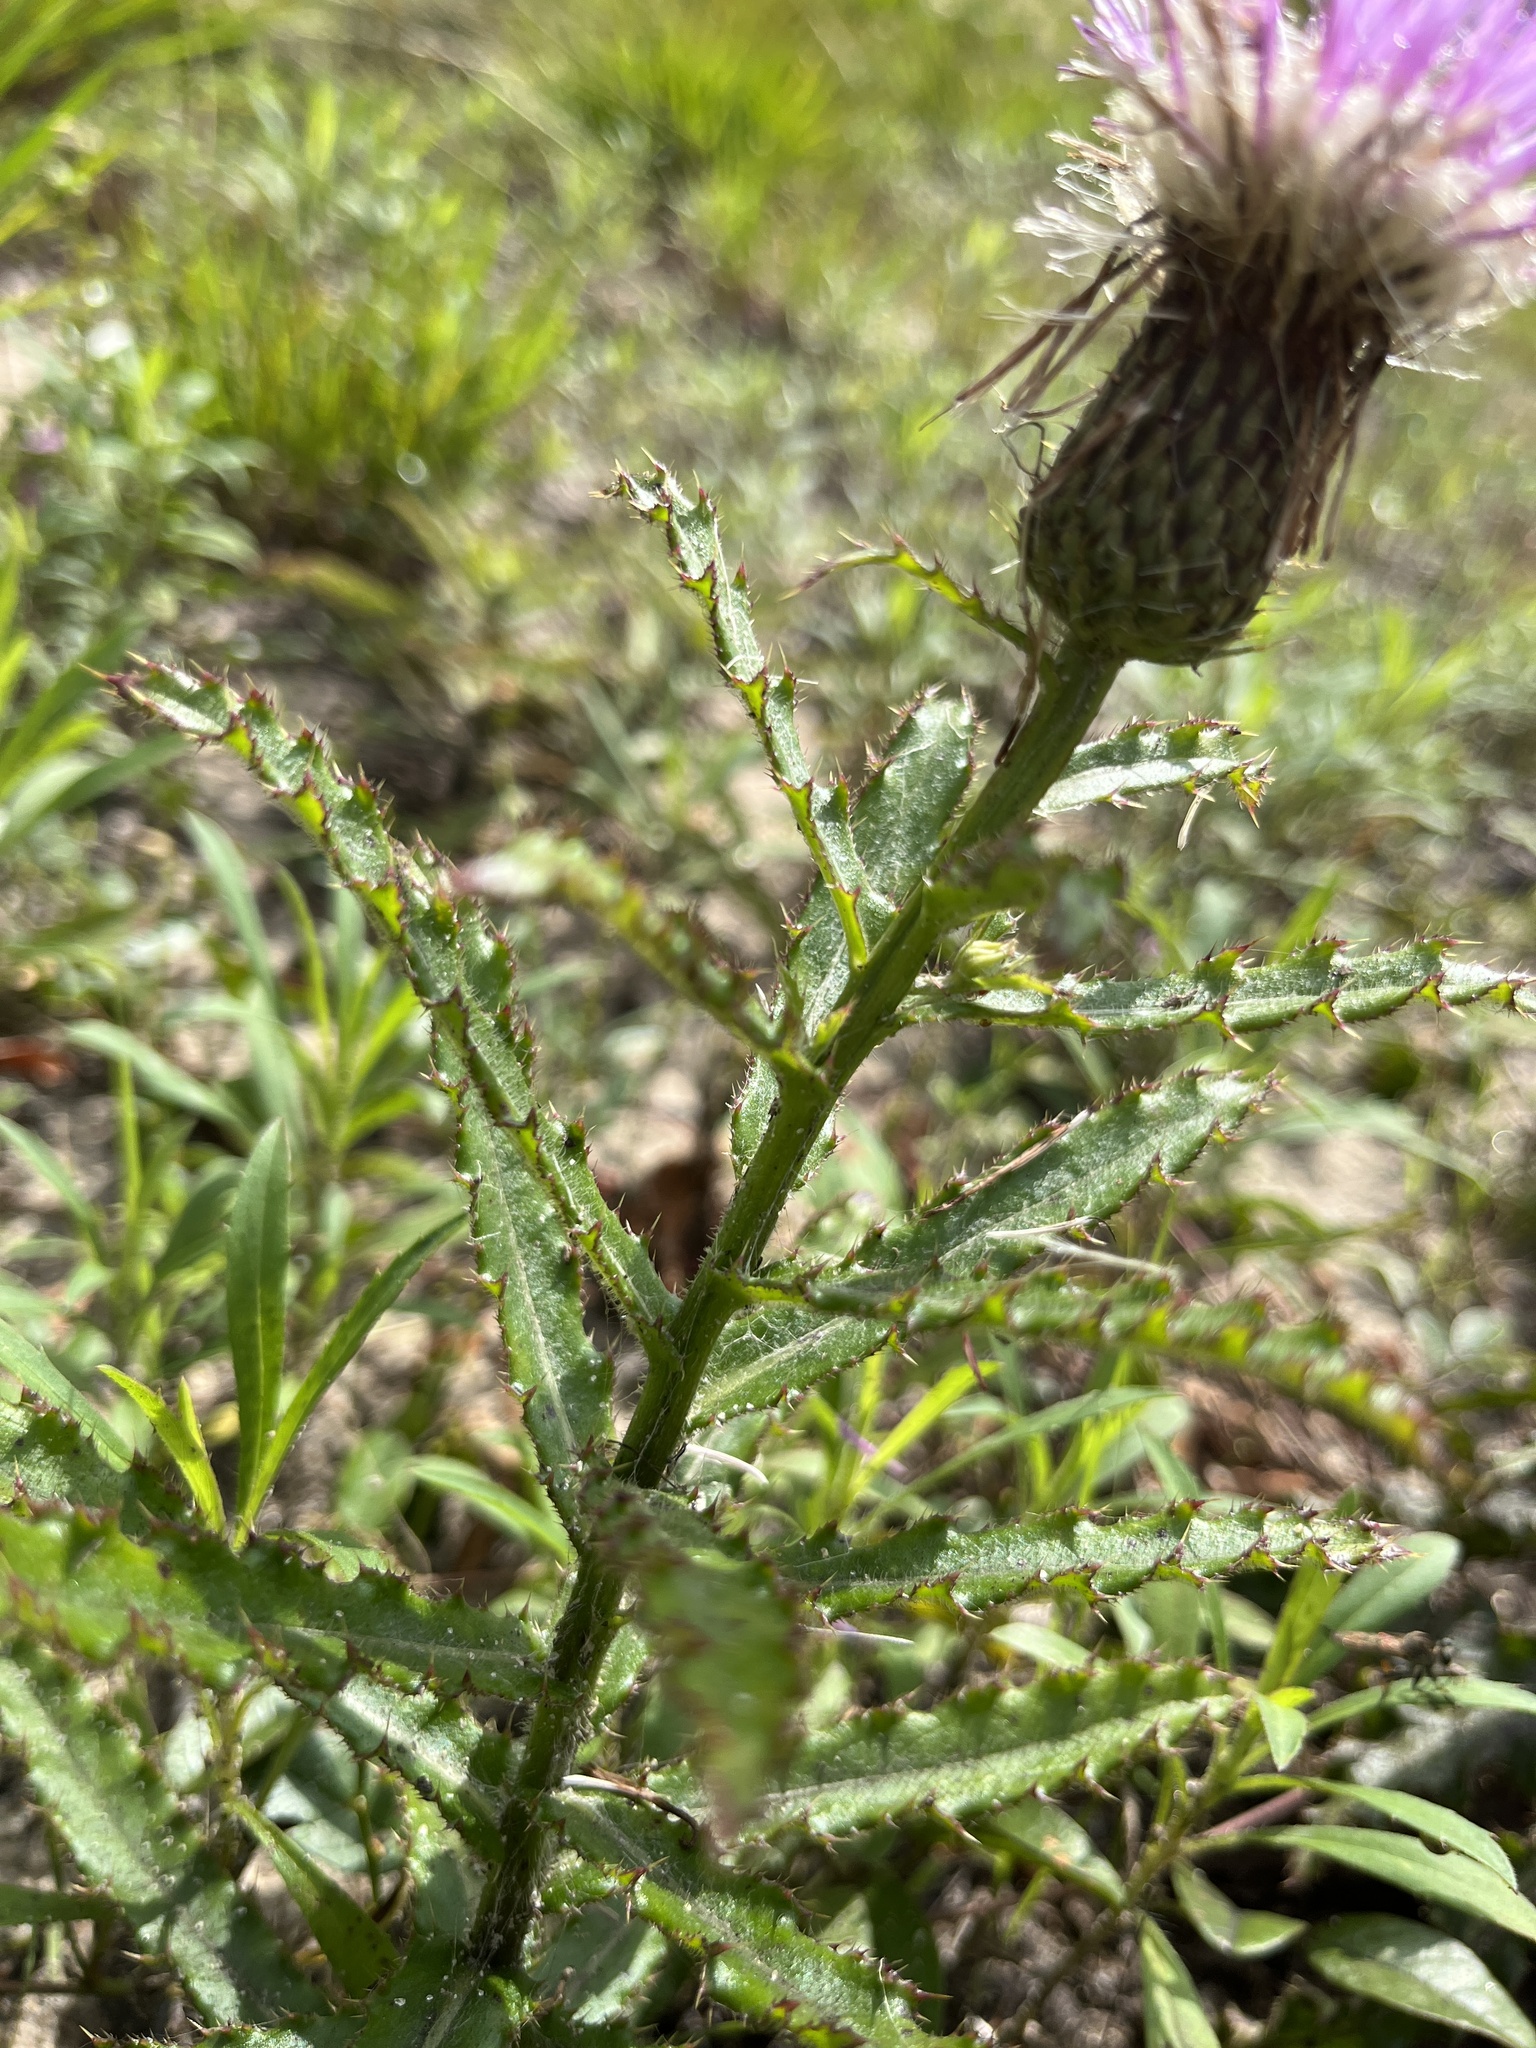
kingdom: Plantae
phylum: Tracheophyta
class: Magnoliopsida
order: Asterales
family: Asteraceae
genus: Cirsium
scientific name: Cirsium repandum
